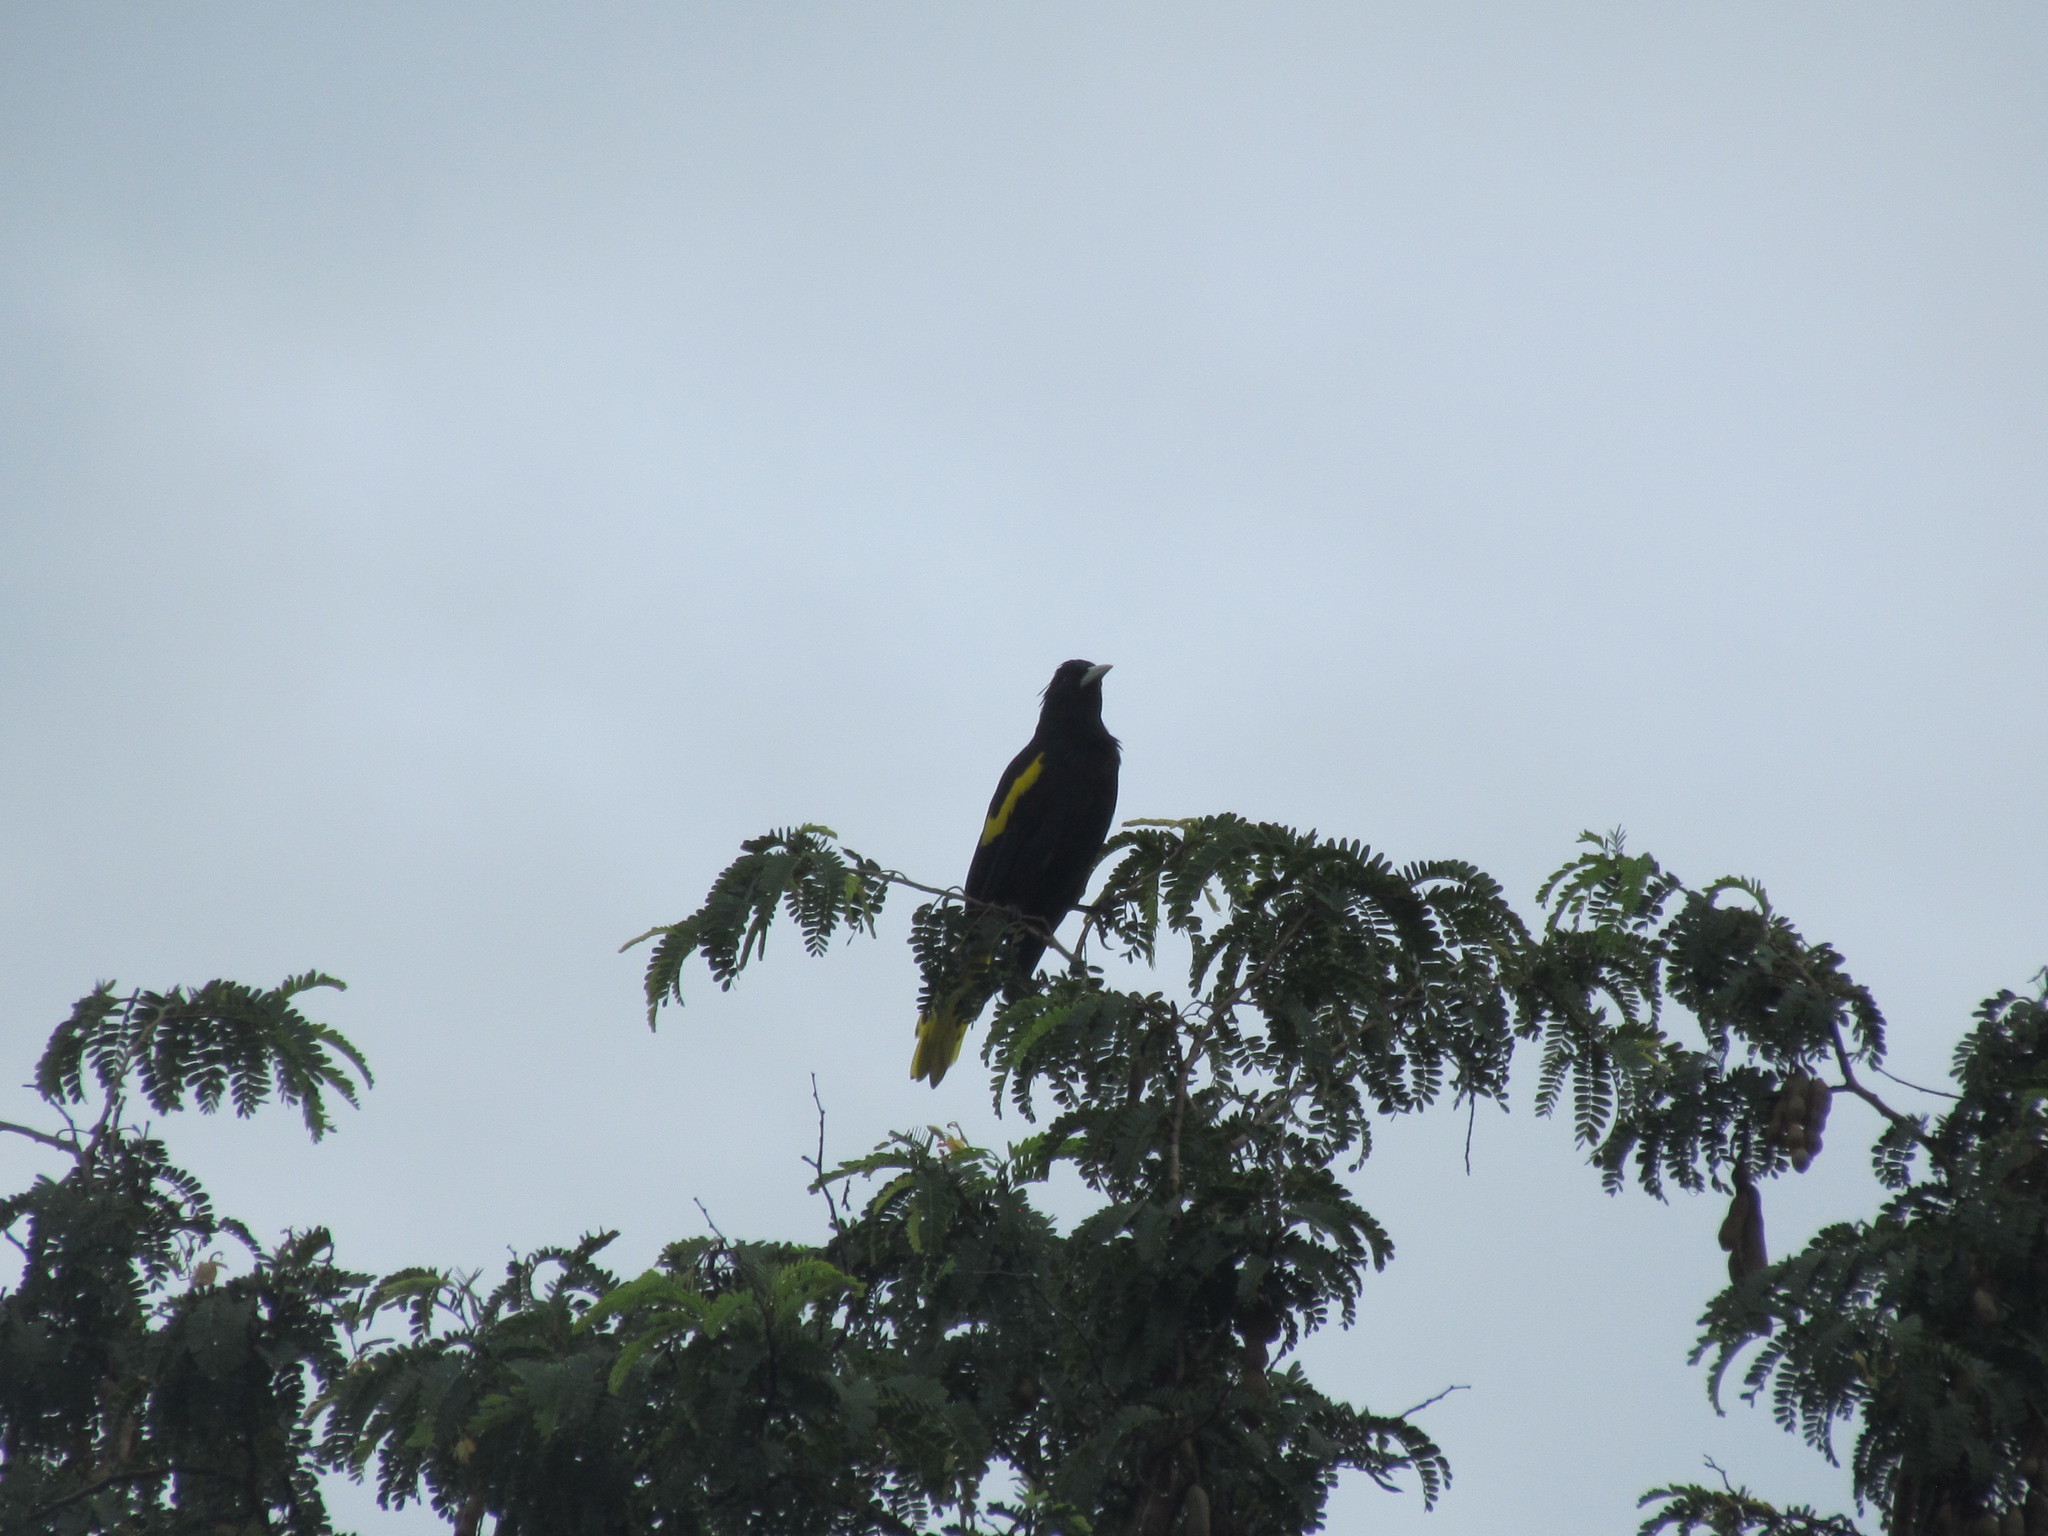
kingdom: Animalia
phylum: Chordata
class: Aves
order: Passeriformes
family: Icteridae
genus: Cacicus
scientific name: Cacicus melanicterus
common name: Yellow-winged cacique
